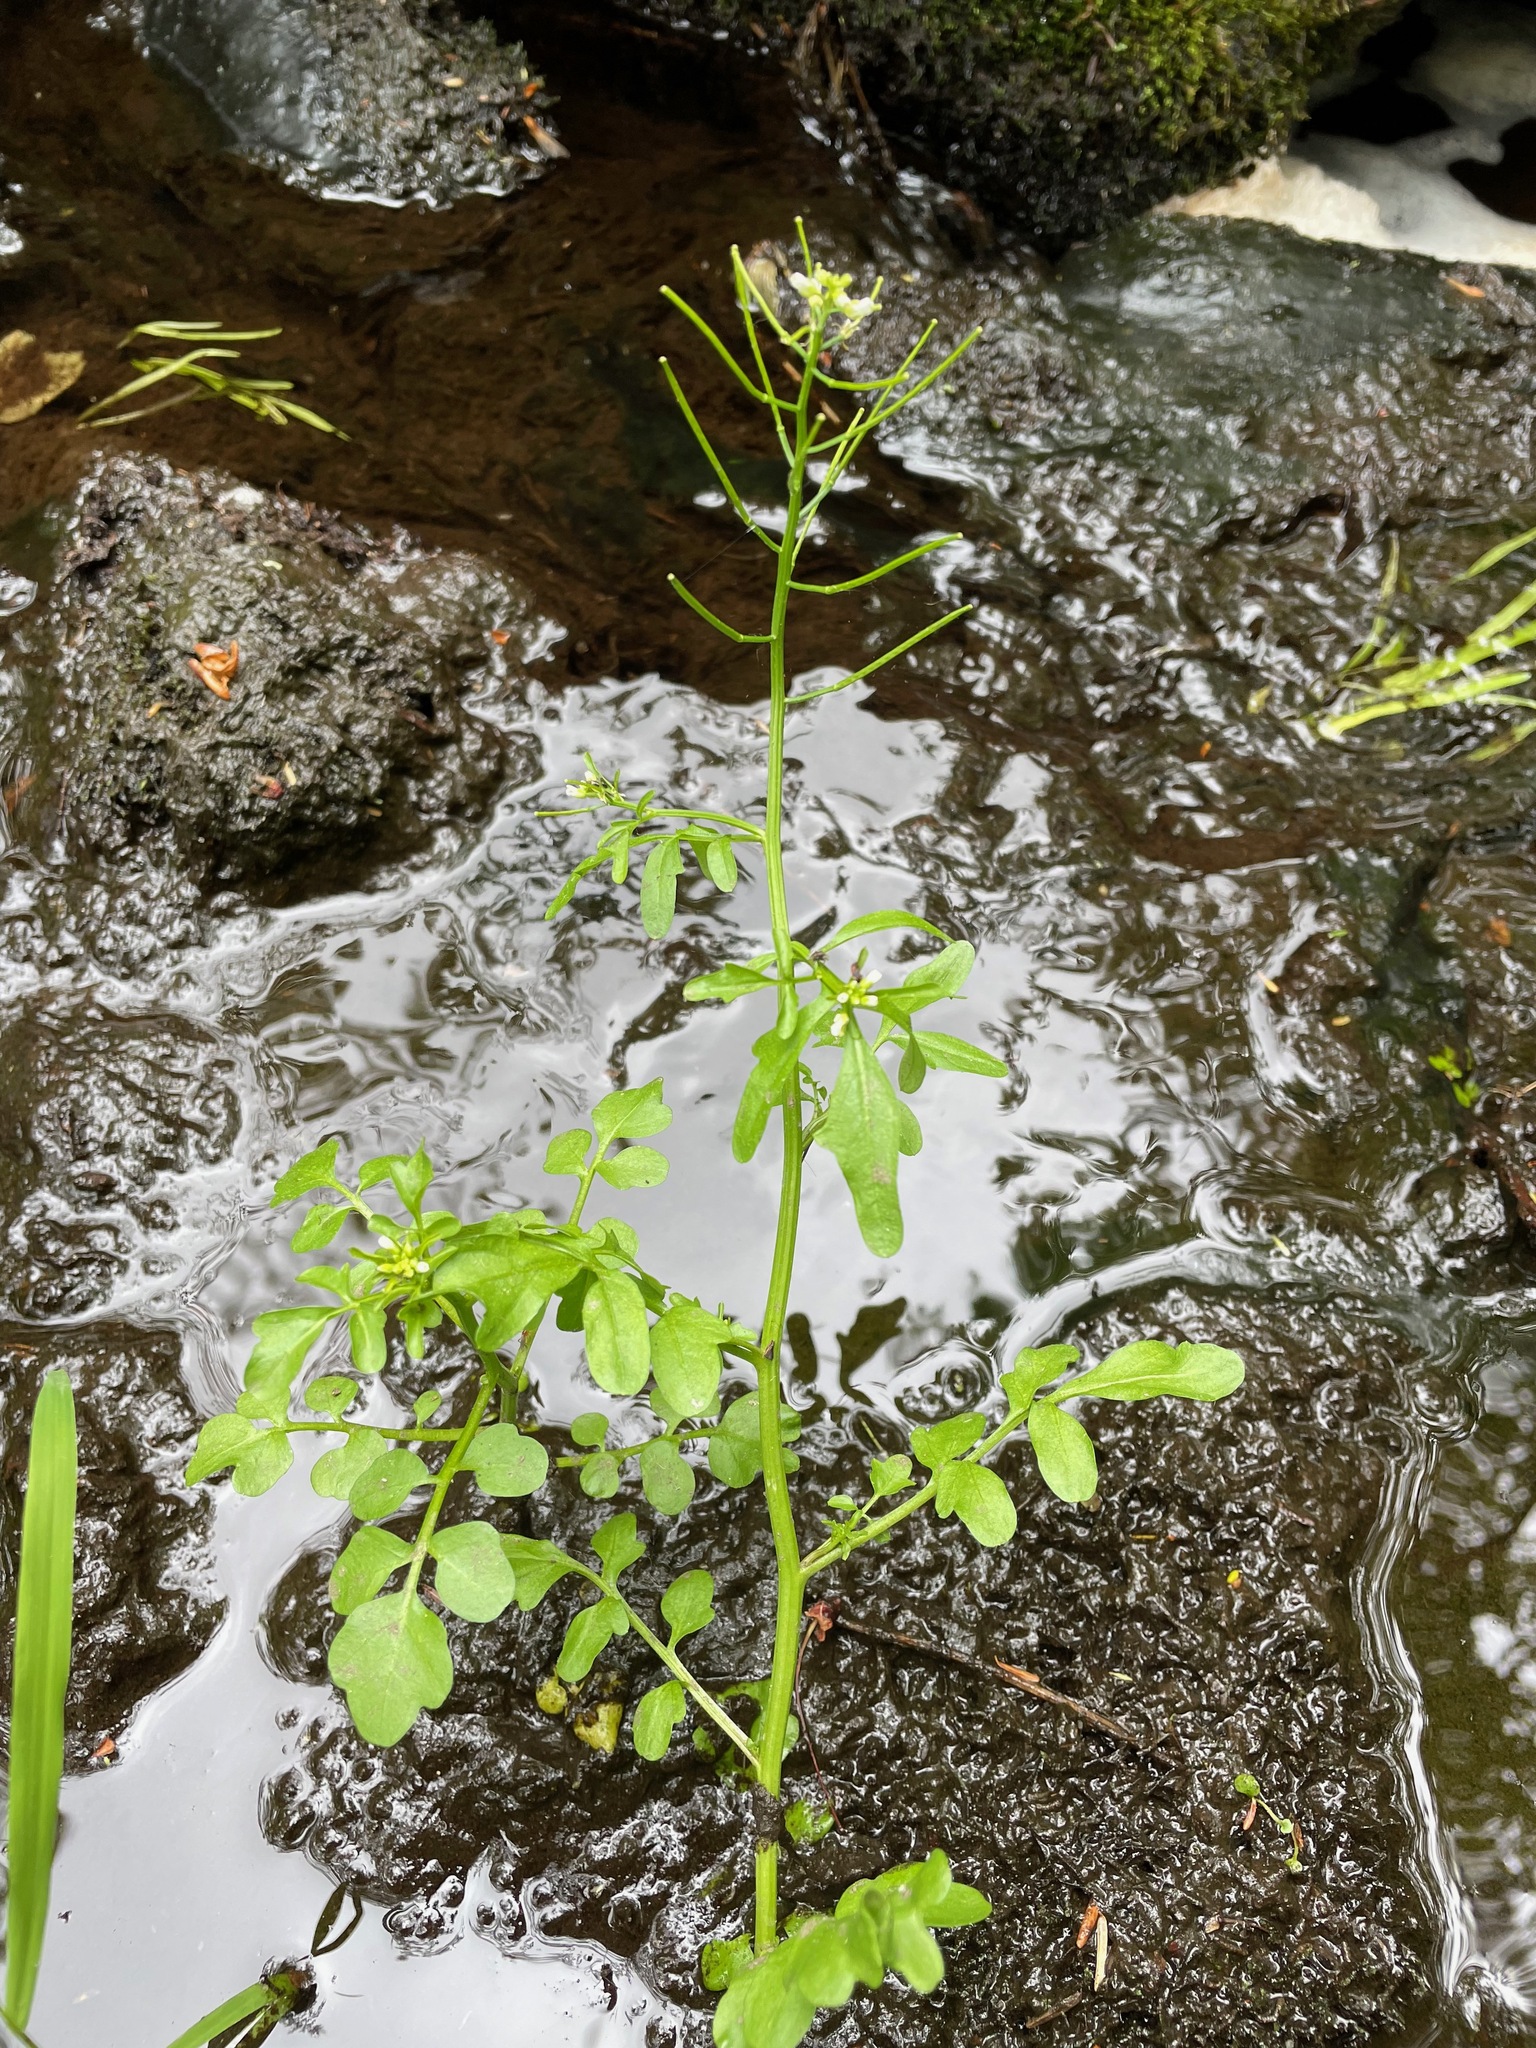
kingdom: Plantae
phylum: Tracheophyta
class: Magnoliopsida
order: Brassicales
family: Brassicaceae
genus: Cardamine
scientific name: Cardamine pensylvanica
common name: Pennsylvania bittercress
